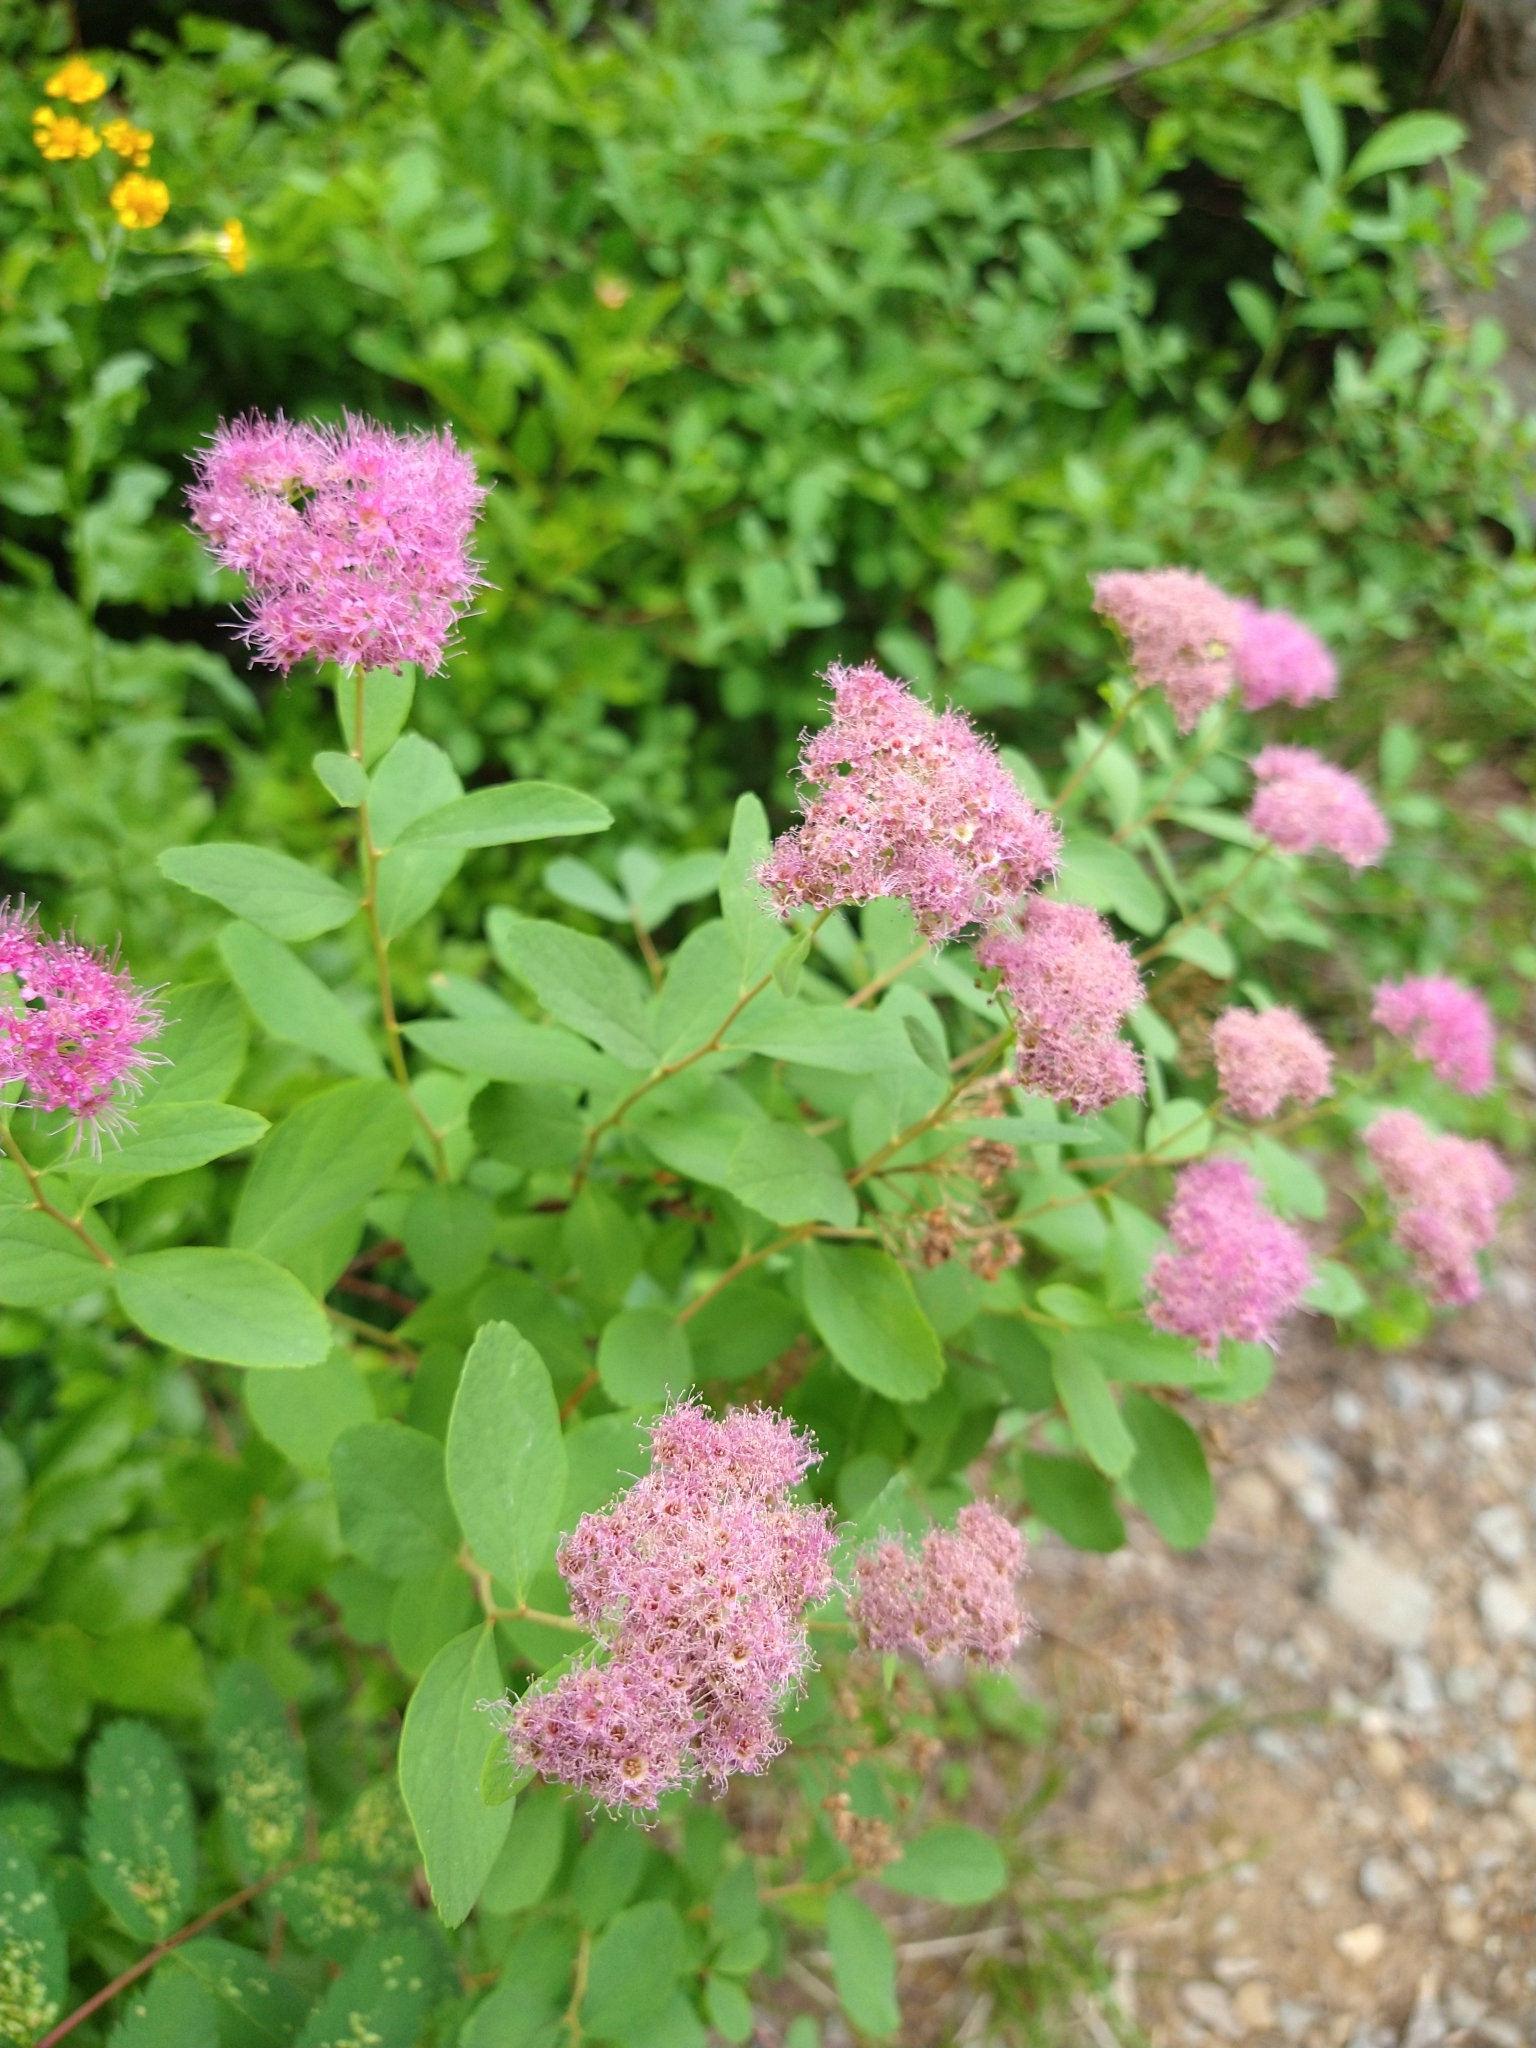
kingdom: Plantae
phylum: Tracheophyta
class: Magnoliopsida
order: Rosales
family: Rosaceae
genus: Spiraea
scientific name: Spiraea splendens
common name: Subalpine meadowsweet
